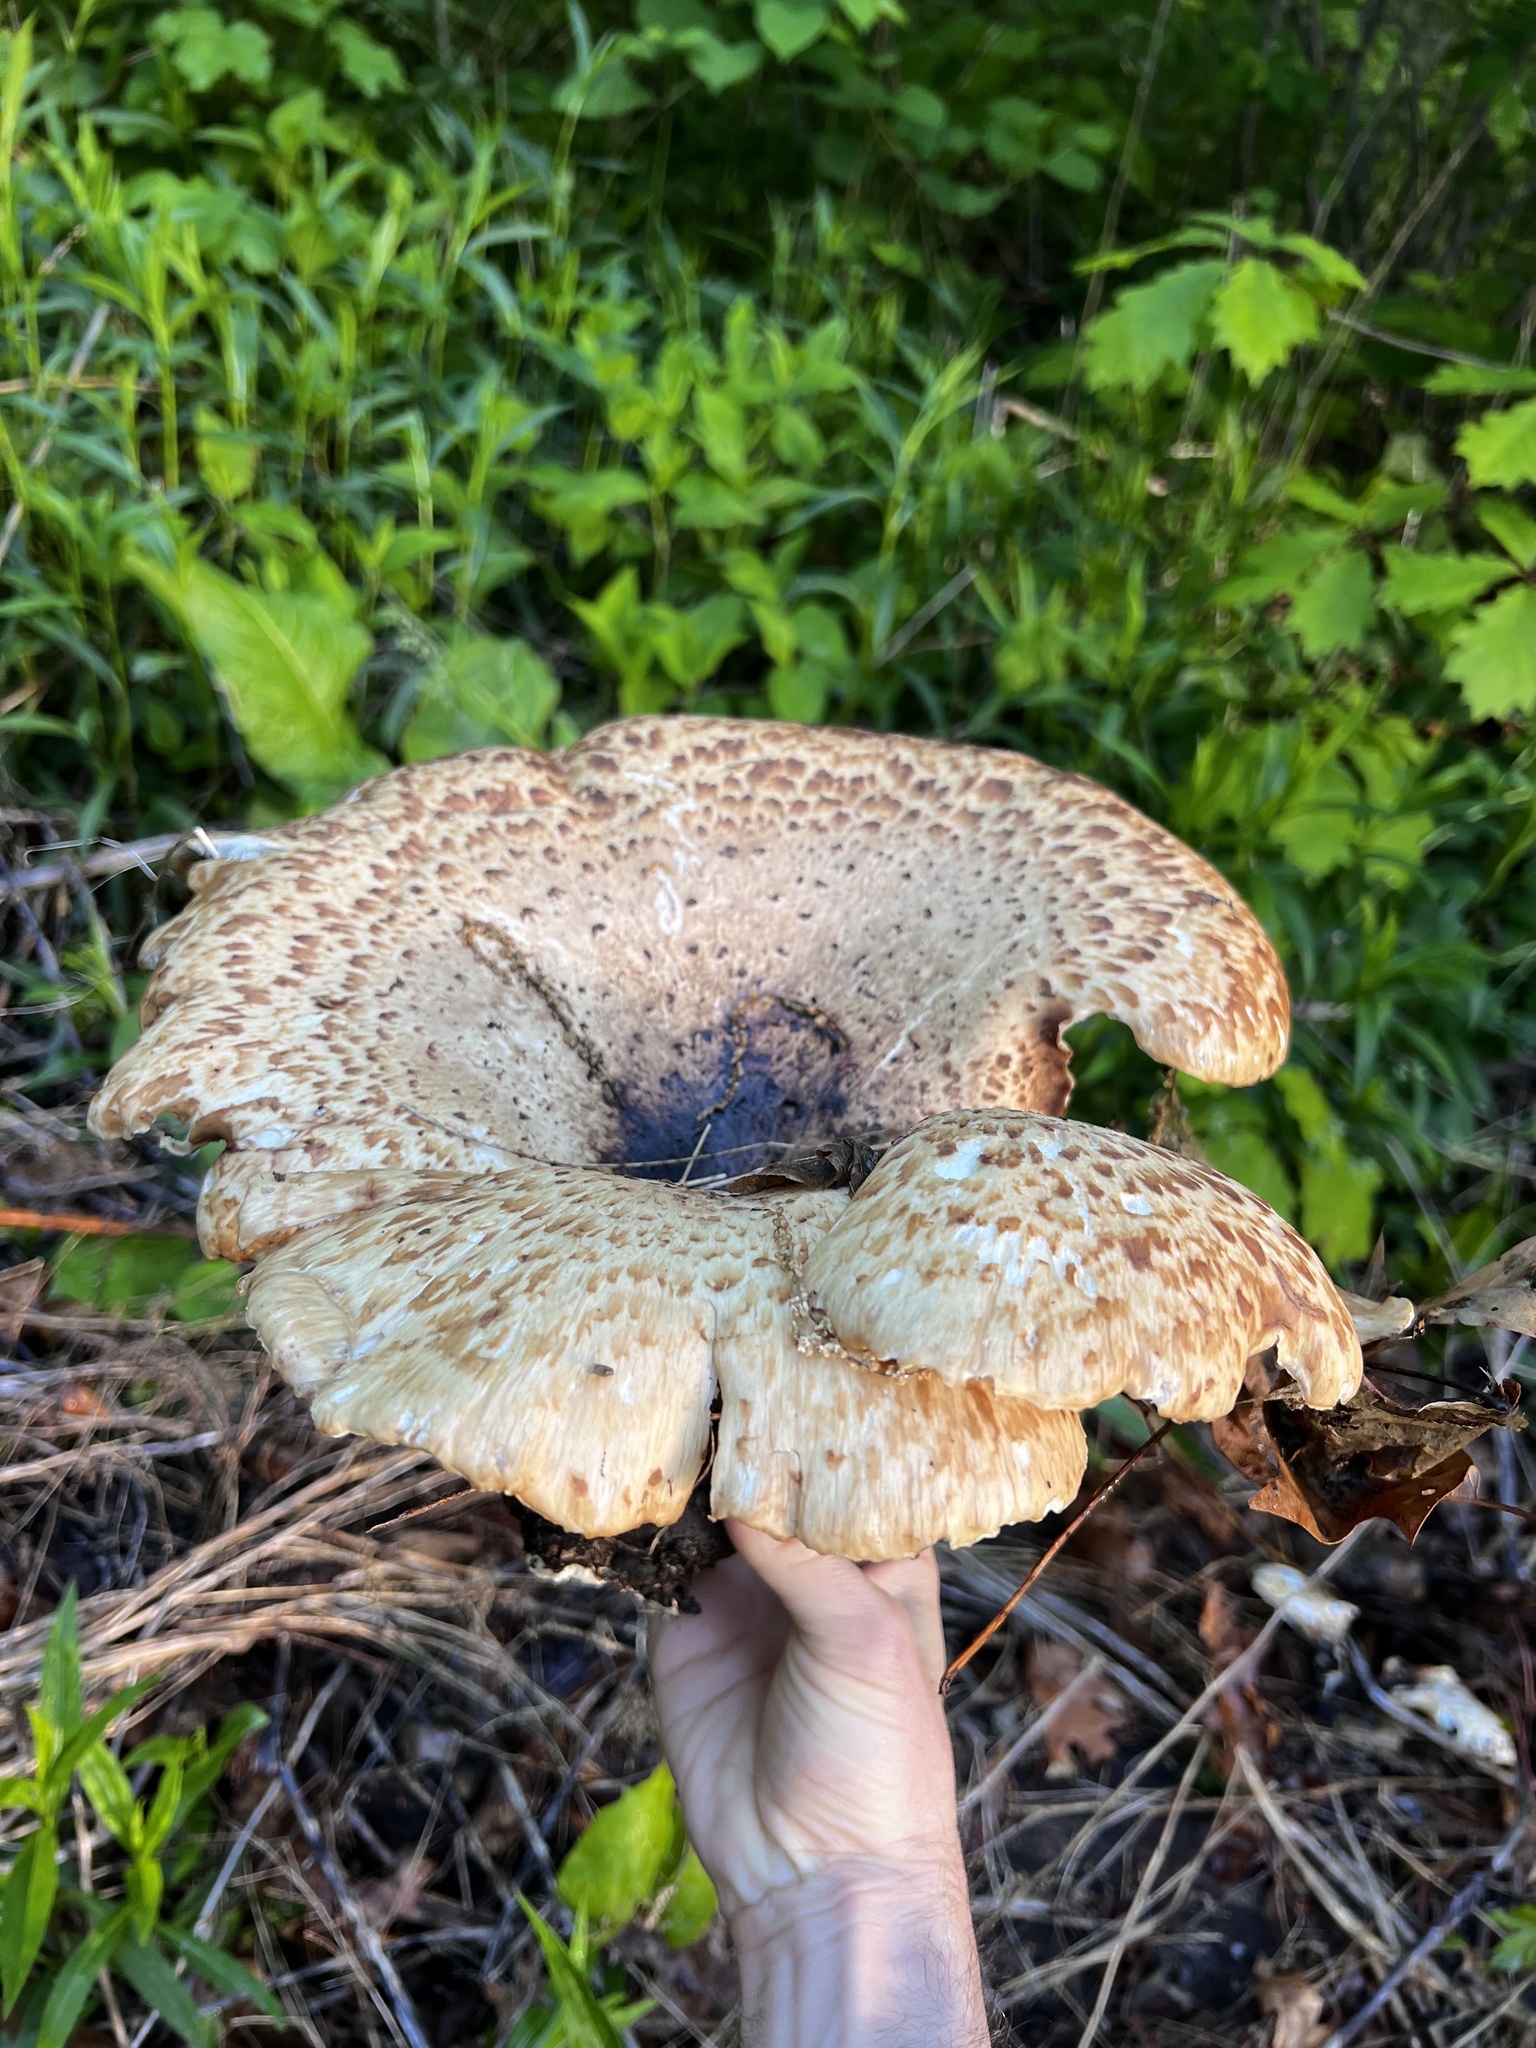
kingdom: Fungi
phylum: Basidiomycota
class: Agaricomycetes
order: Polyporales
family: Polyporaceae
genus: Cerioporus
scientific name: Cerioporus squamosus
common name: Dryad's saddle
